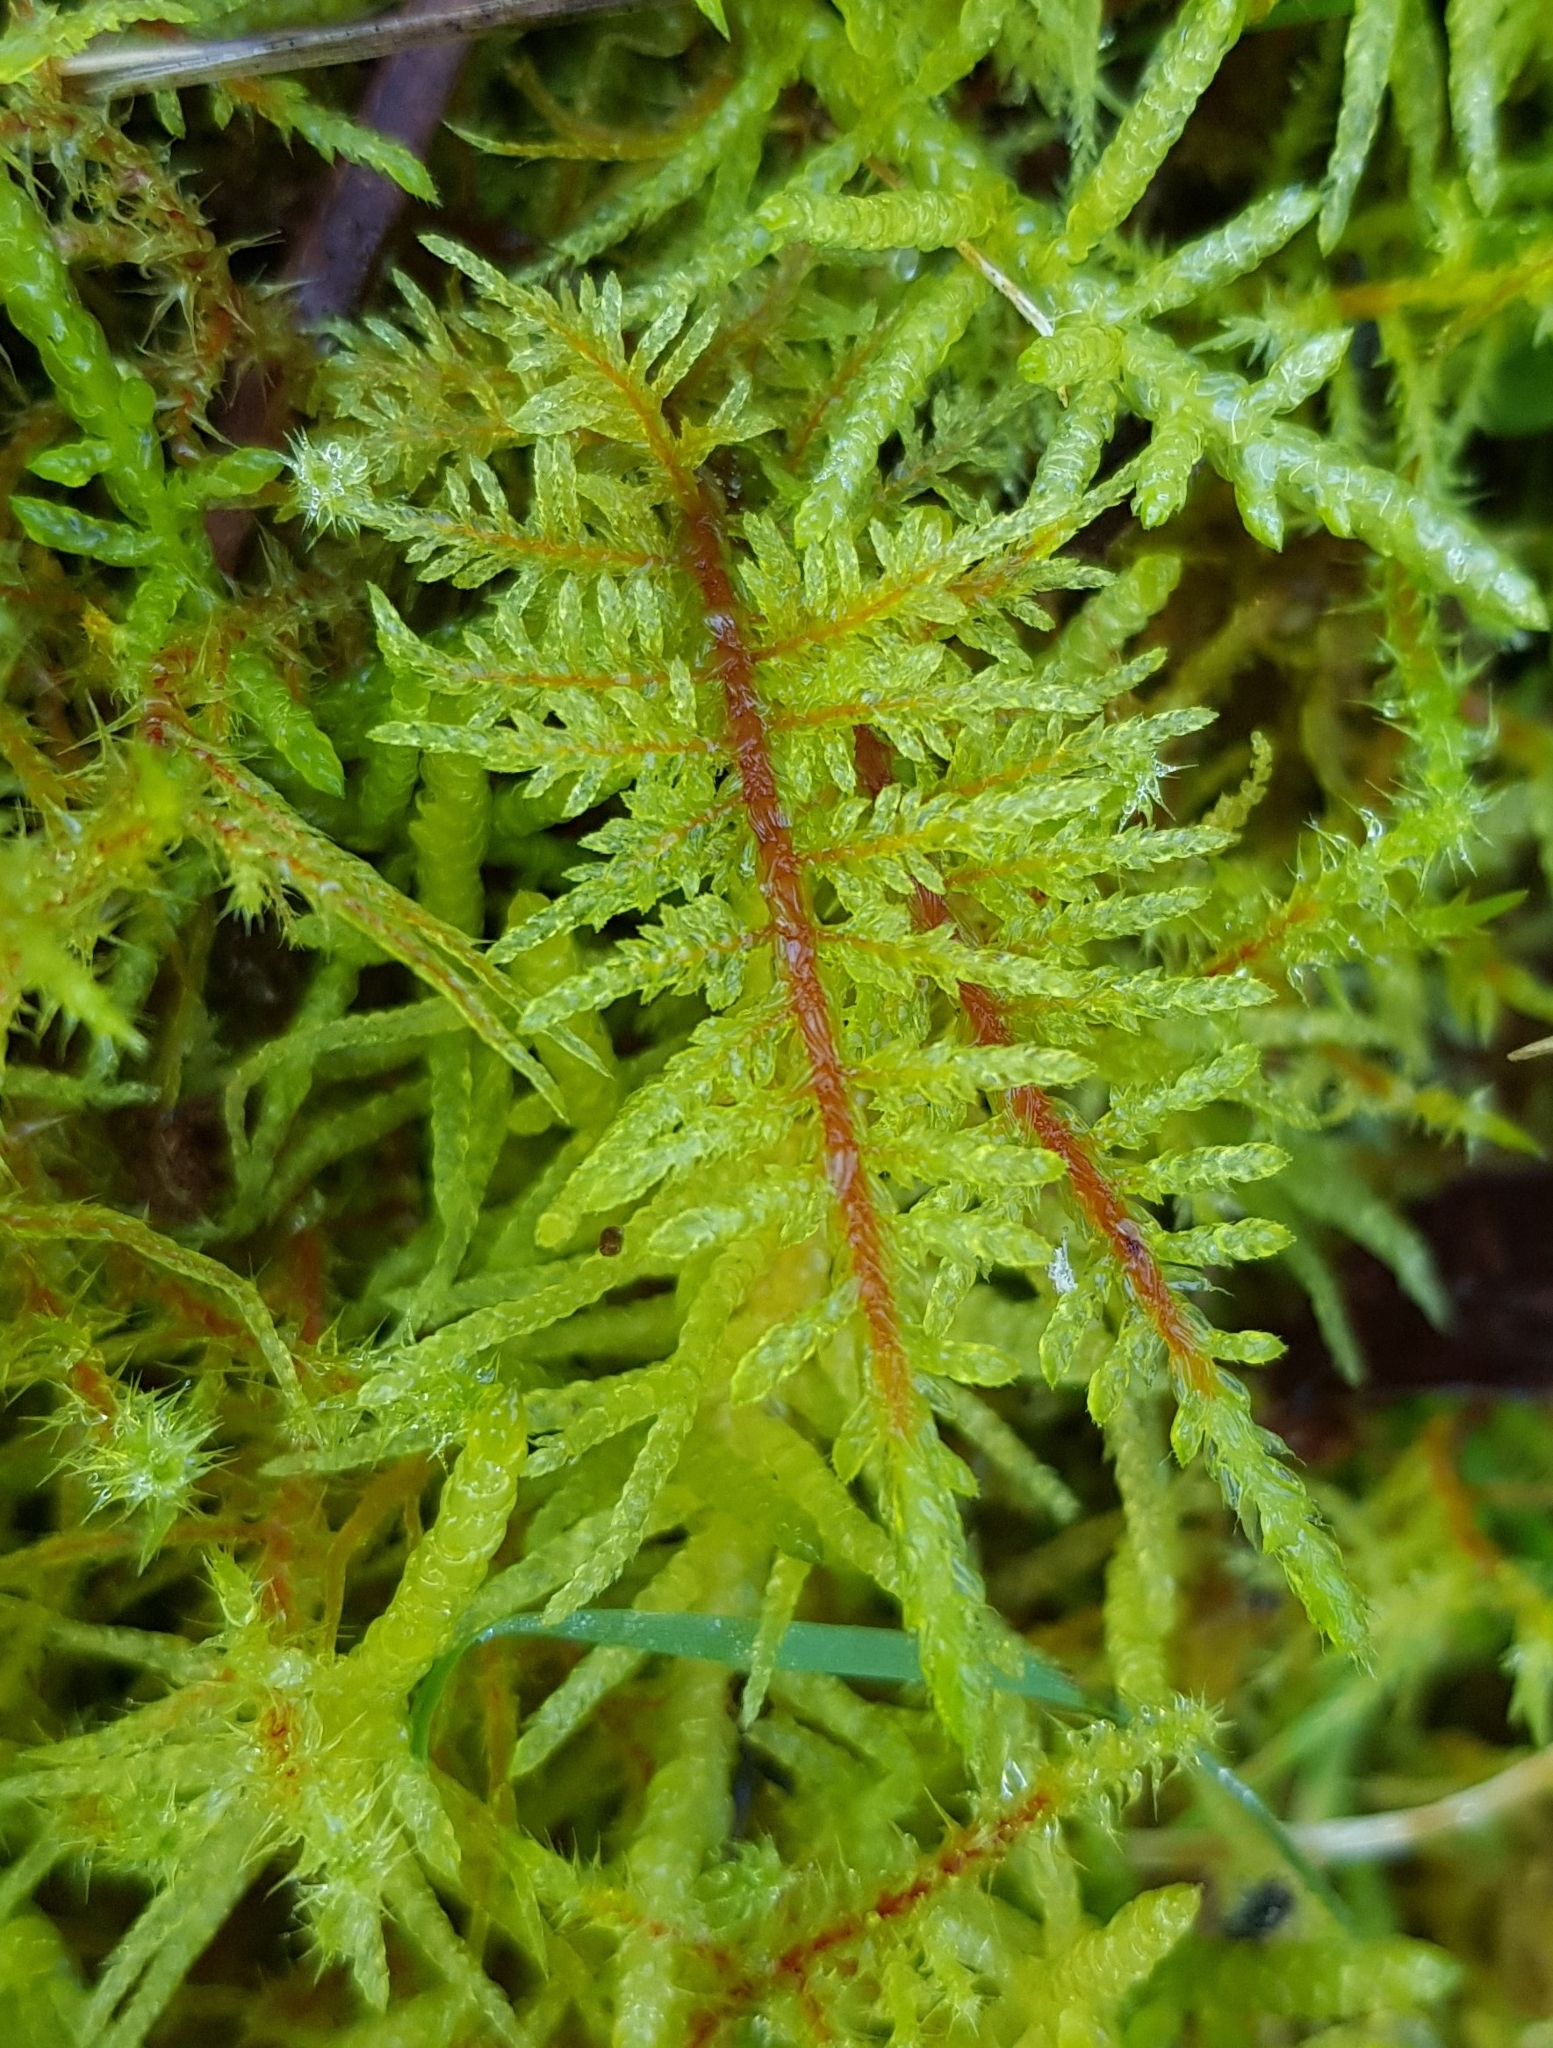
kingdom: Plantae
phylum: Bryophyta
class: Bryopsida
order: Hypnales
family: Hylocomiaceae
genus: Hylocomium
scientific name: Hylocomium splendens
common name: Stairstep moss
